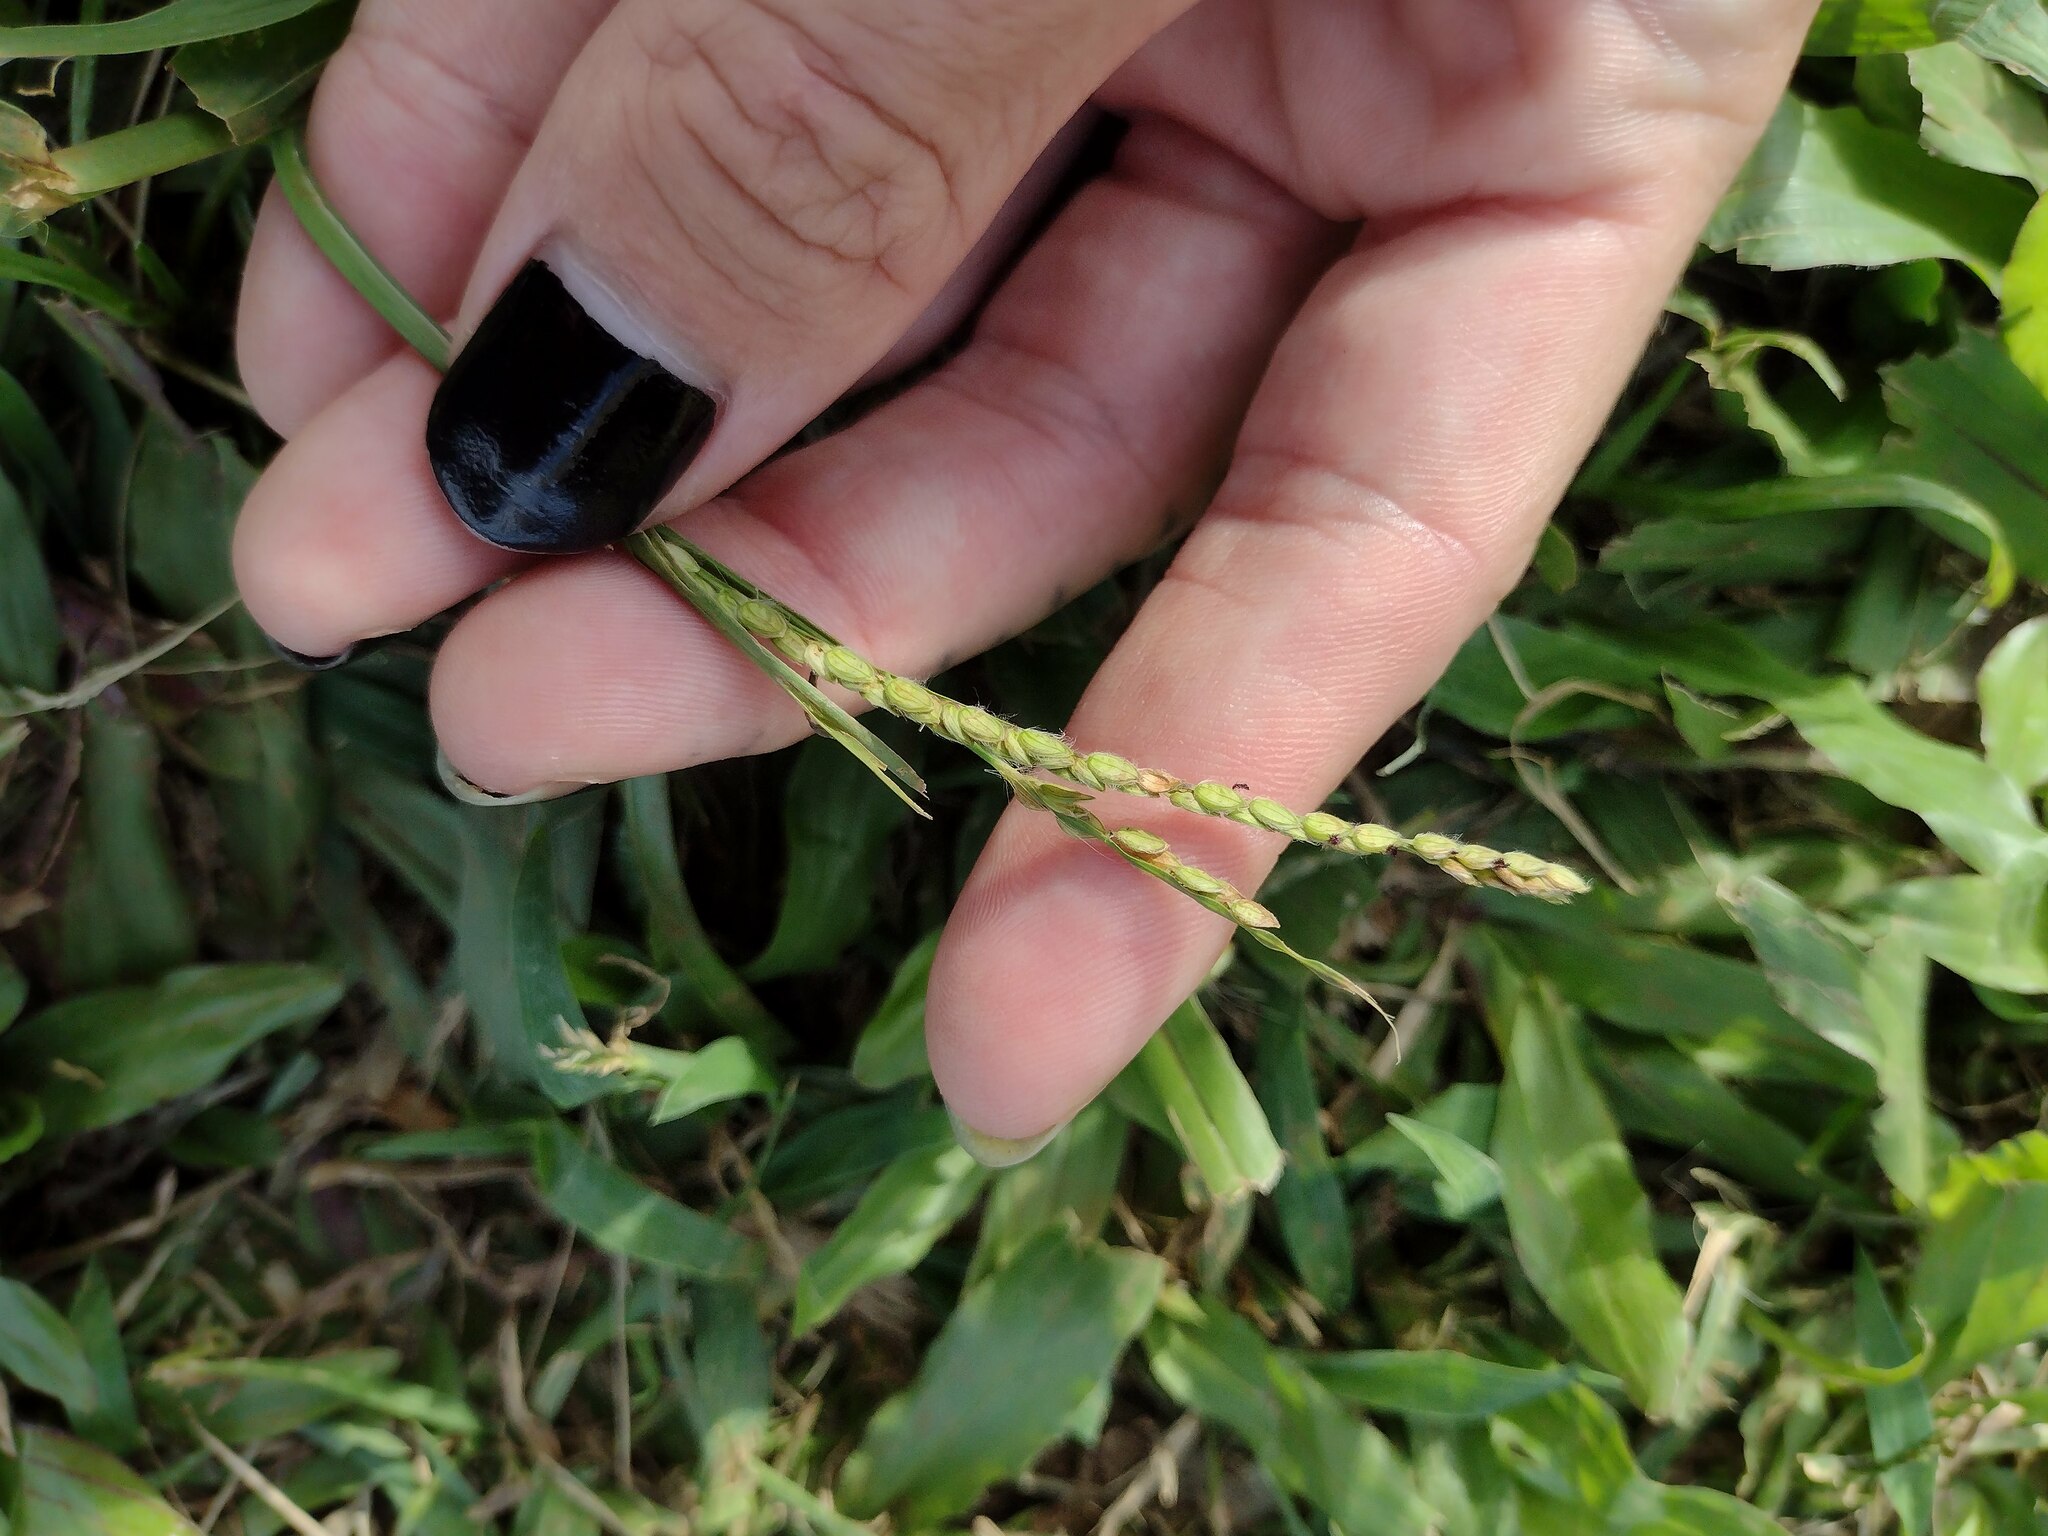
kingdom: Plantae
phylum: Tracheophyta
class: Liliopsida
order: Poales
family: Poaceae
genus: Paspalum
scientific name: Paspalum dilatatum
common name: Dallisgrass
